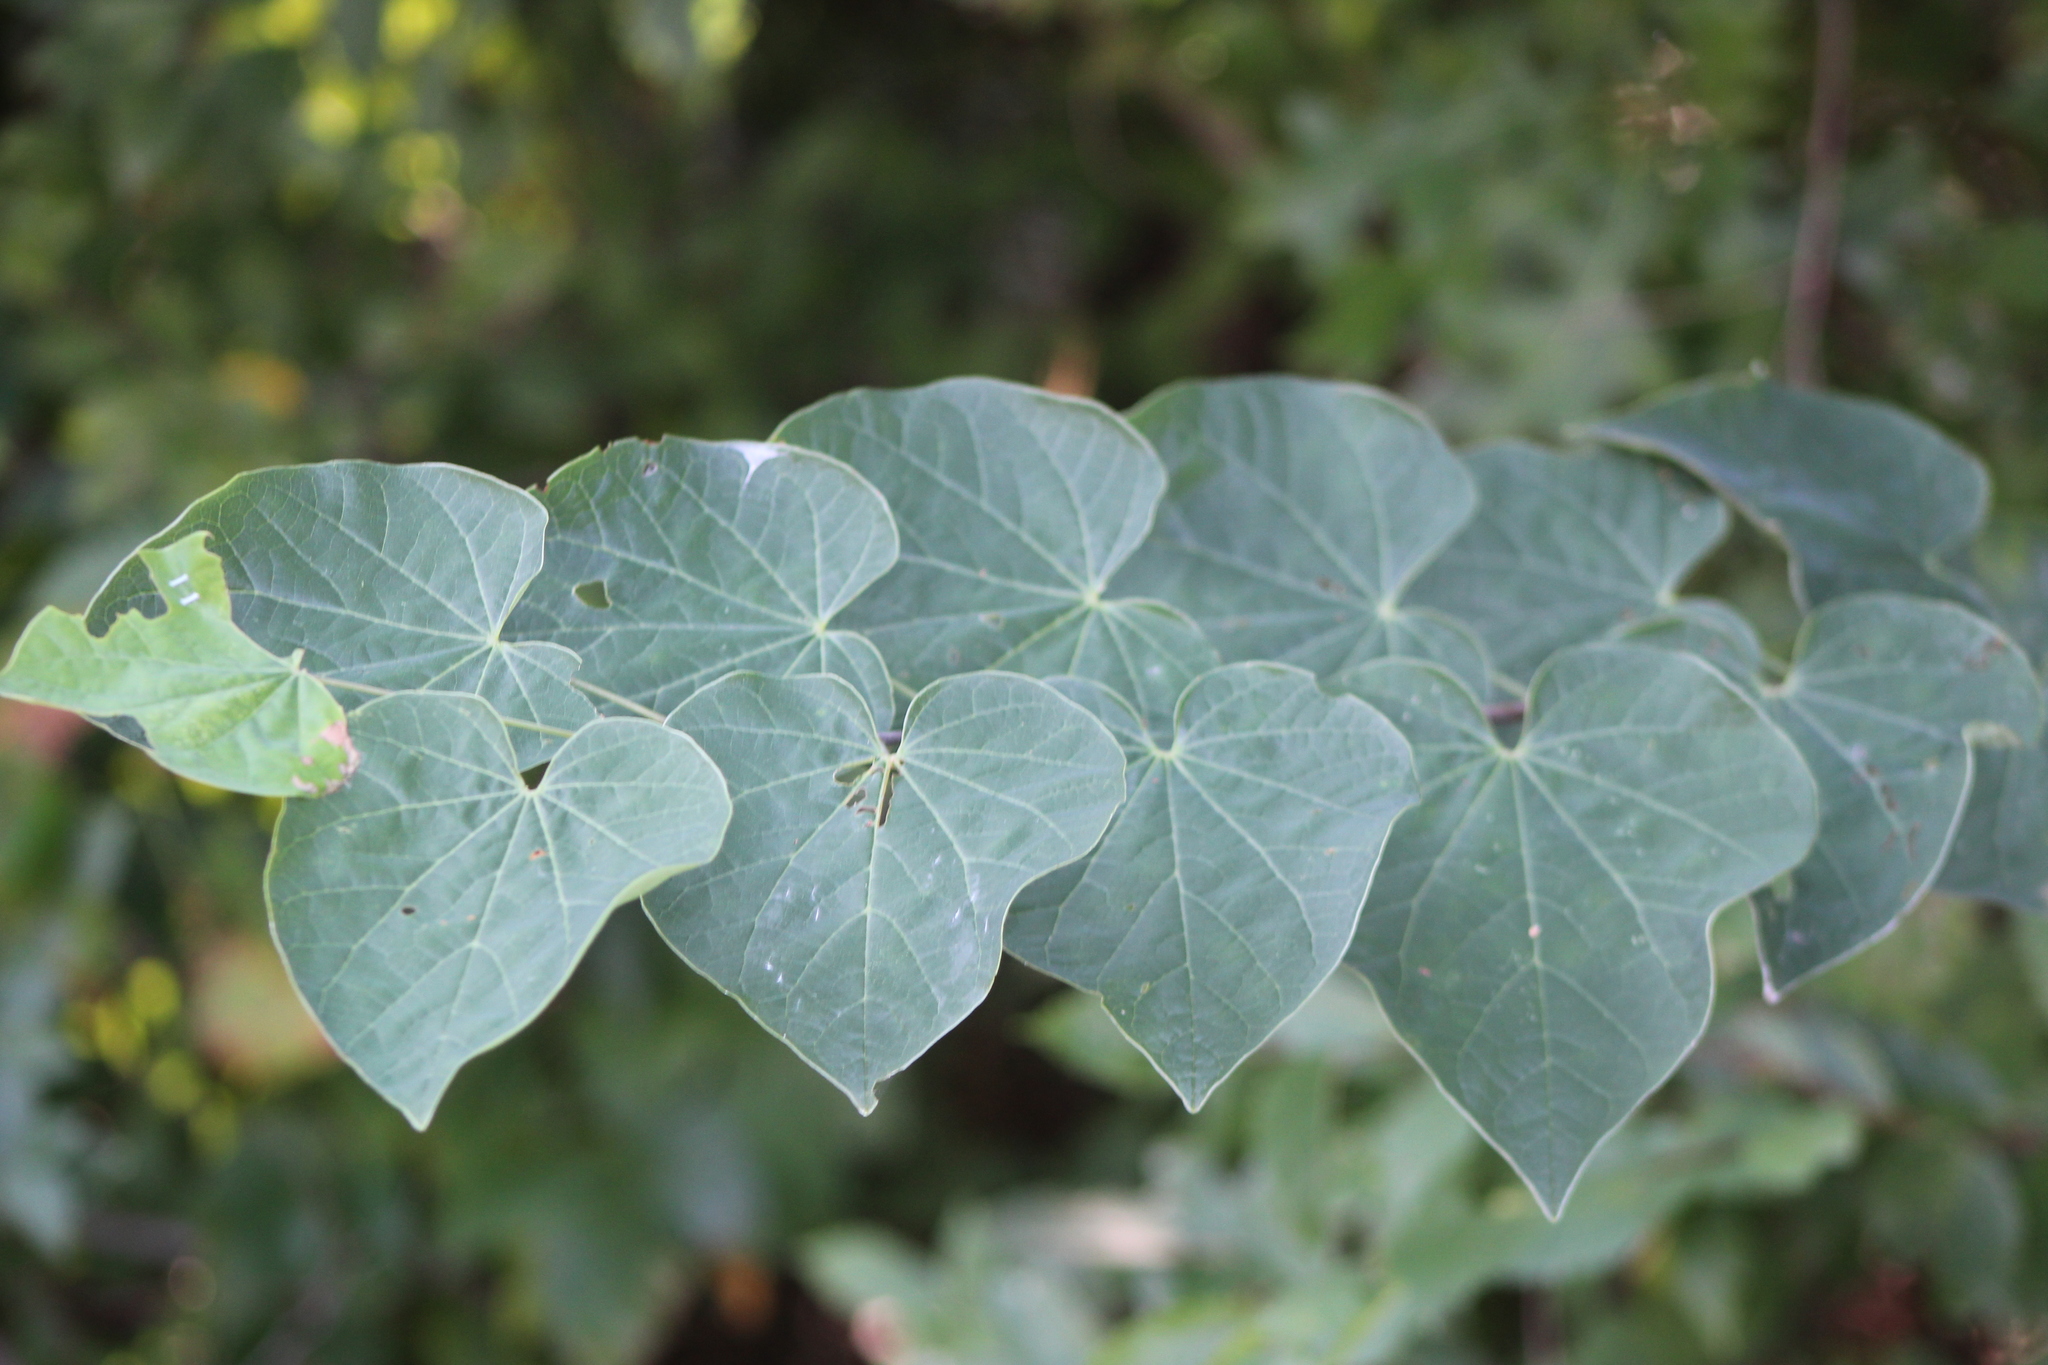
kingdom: Plantae
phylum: Tracheophyta
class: Magnoliopsida
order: Fabales
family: Fabaceae
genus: Cercis
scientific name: Cercis canadensis
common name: Eastern redbud
